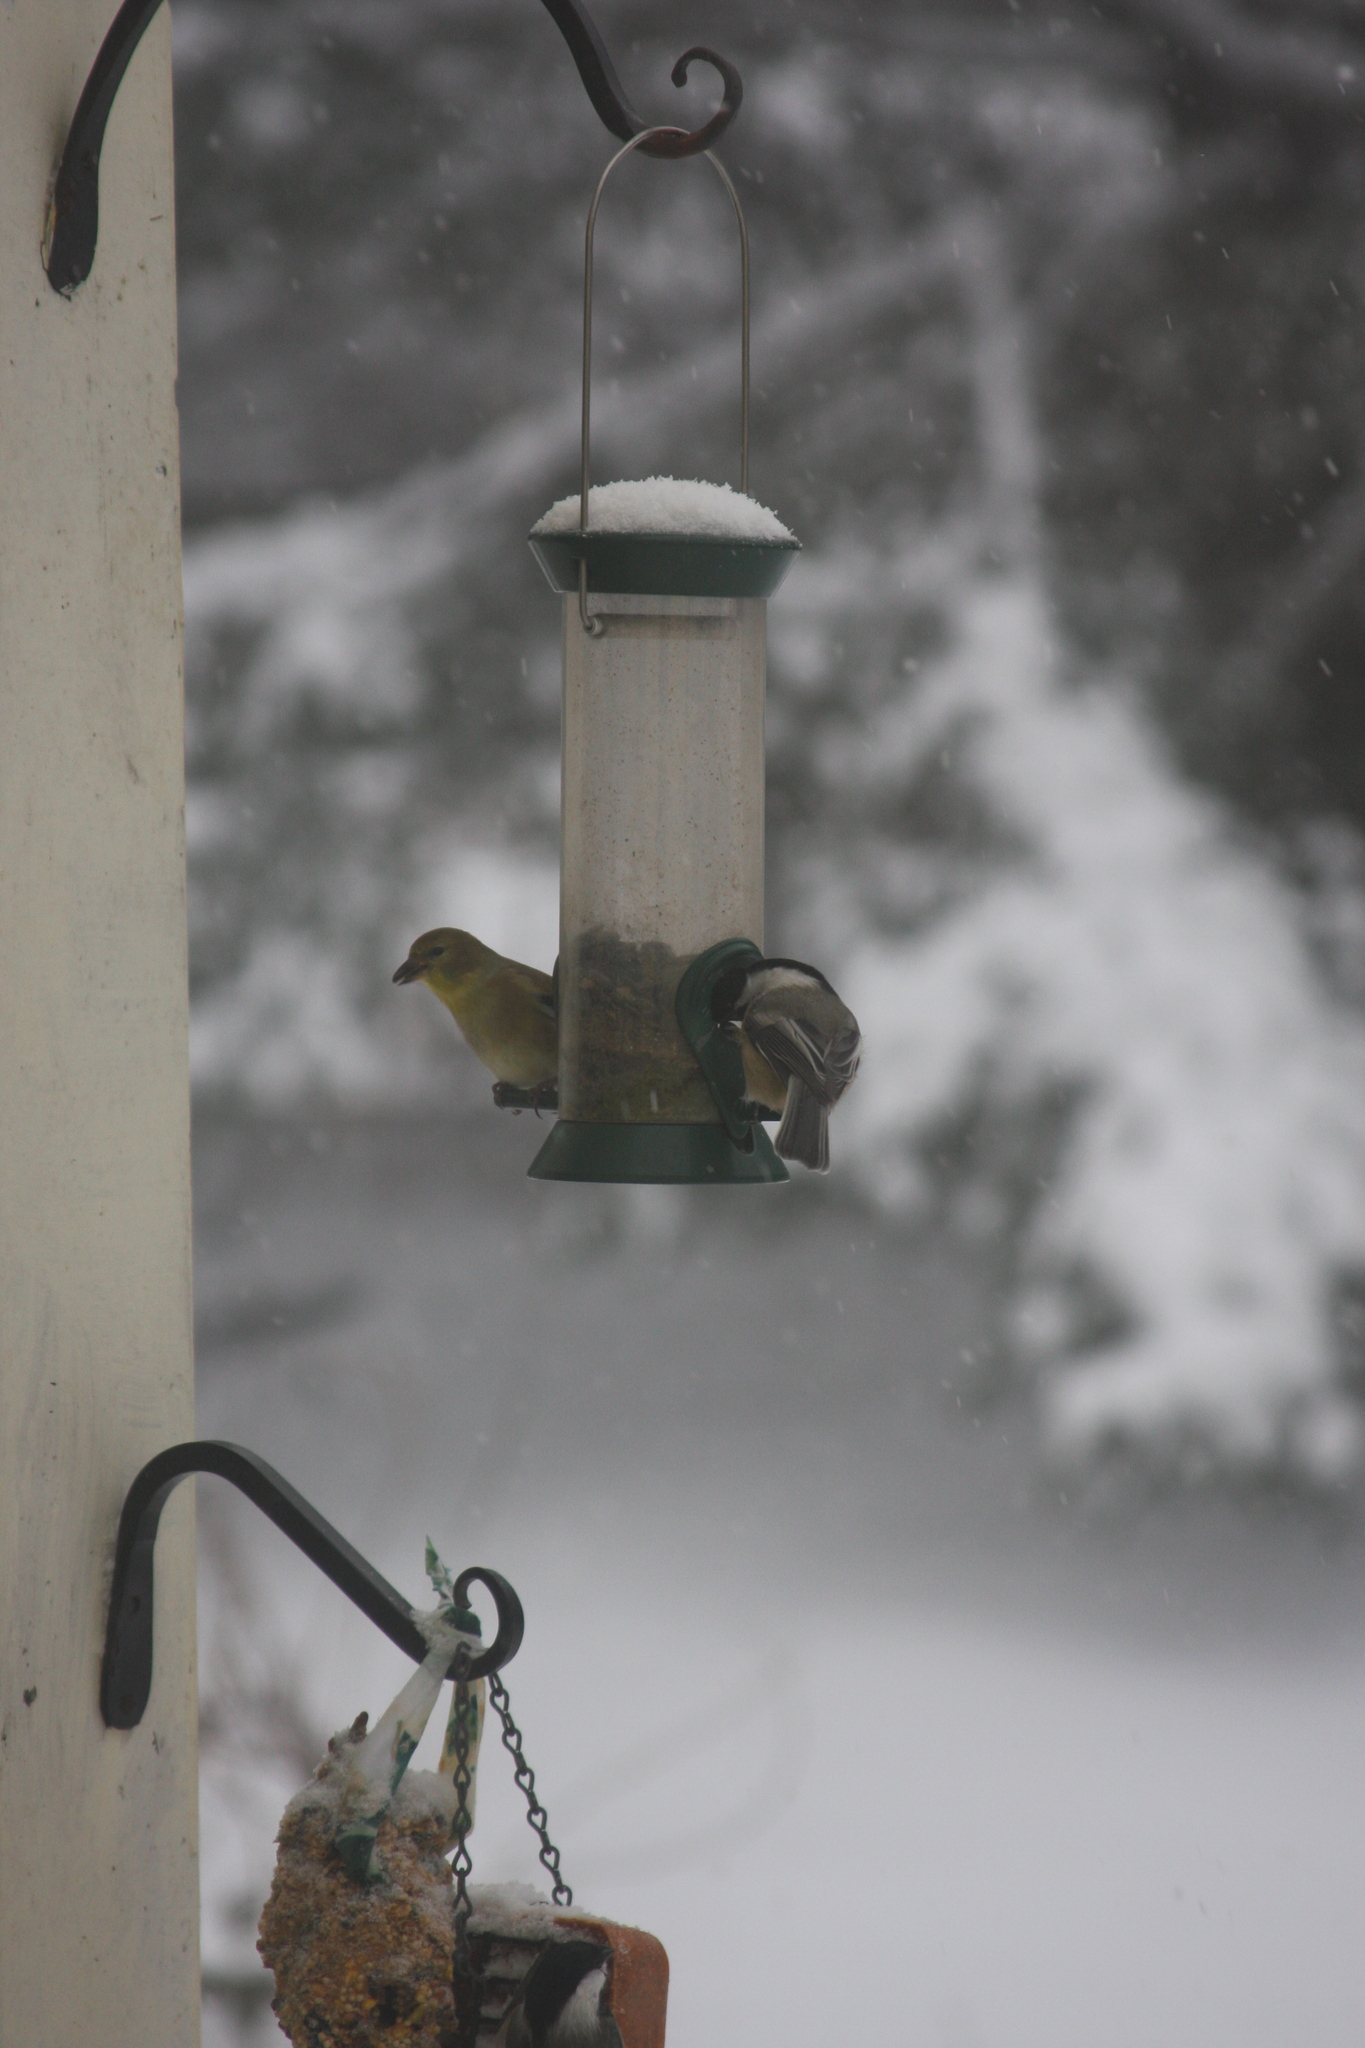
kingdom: Animalia
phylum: Chordata
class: Aves
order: Passeriformes
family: Paridae
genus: Poecile
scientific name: Poecile atricapillus
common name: Black-capped chickadee
